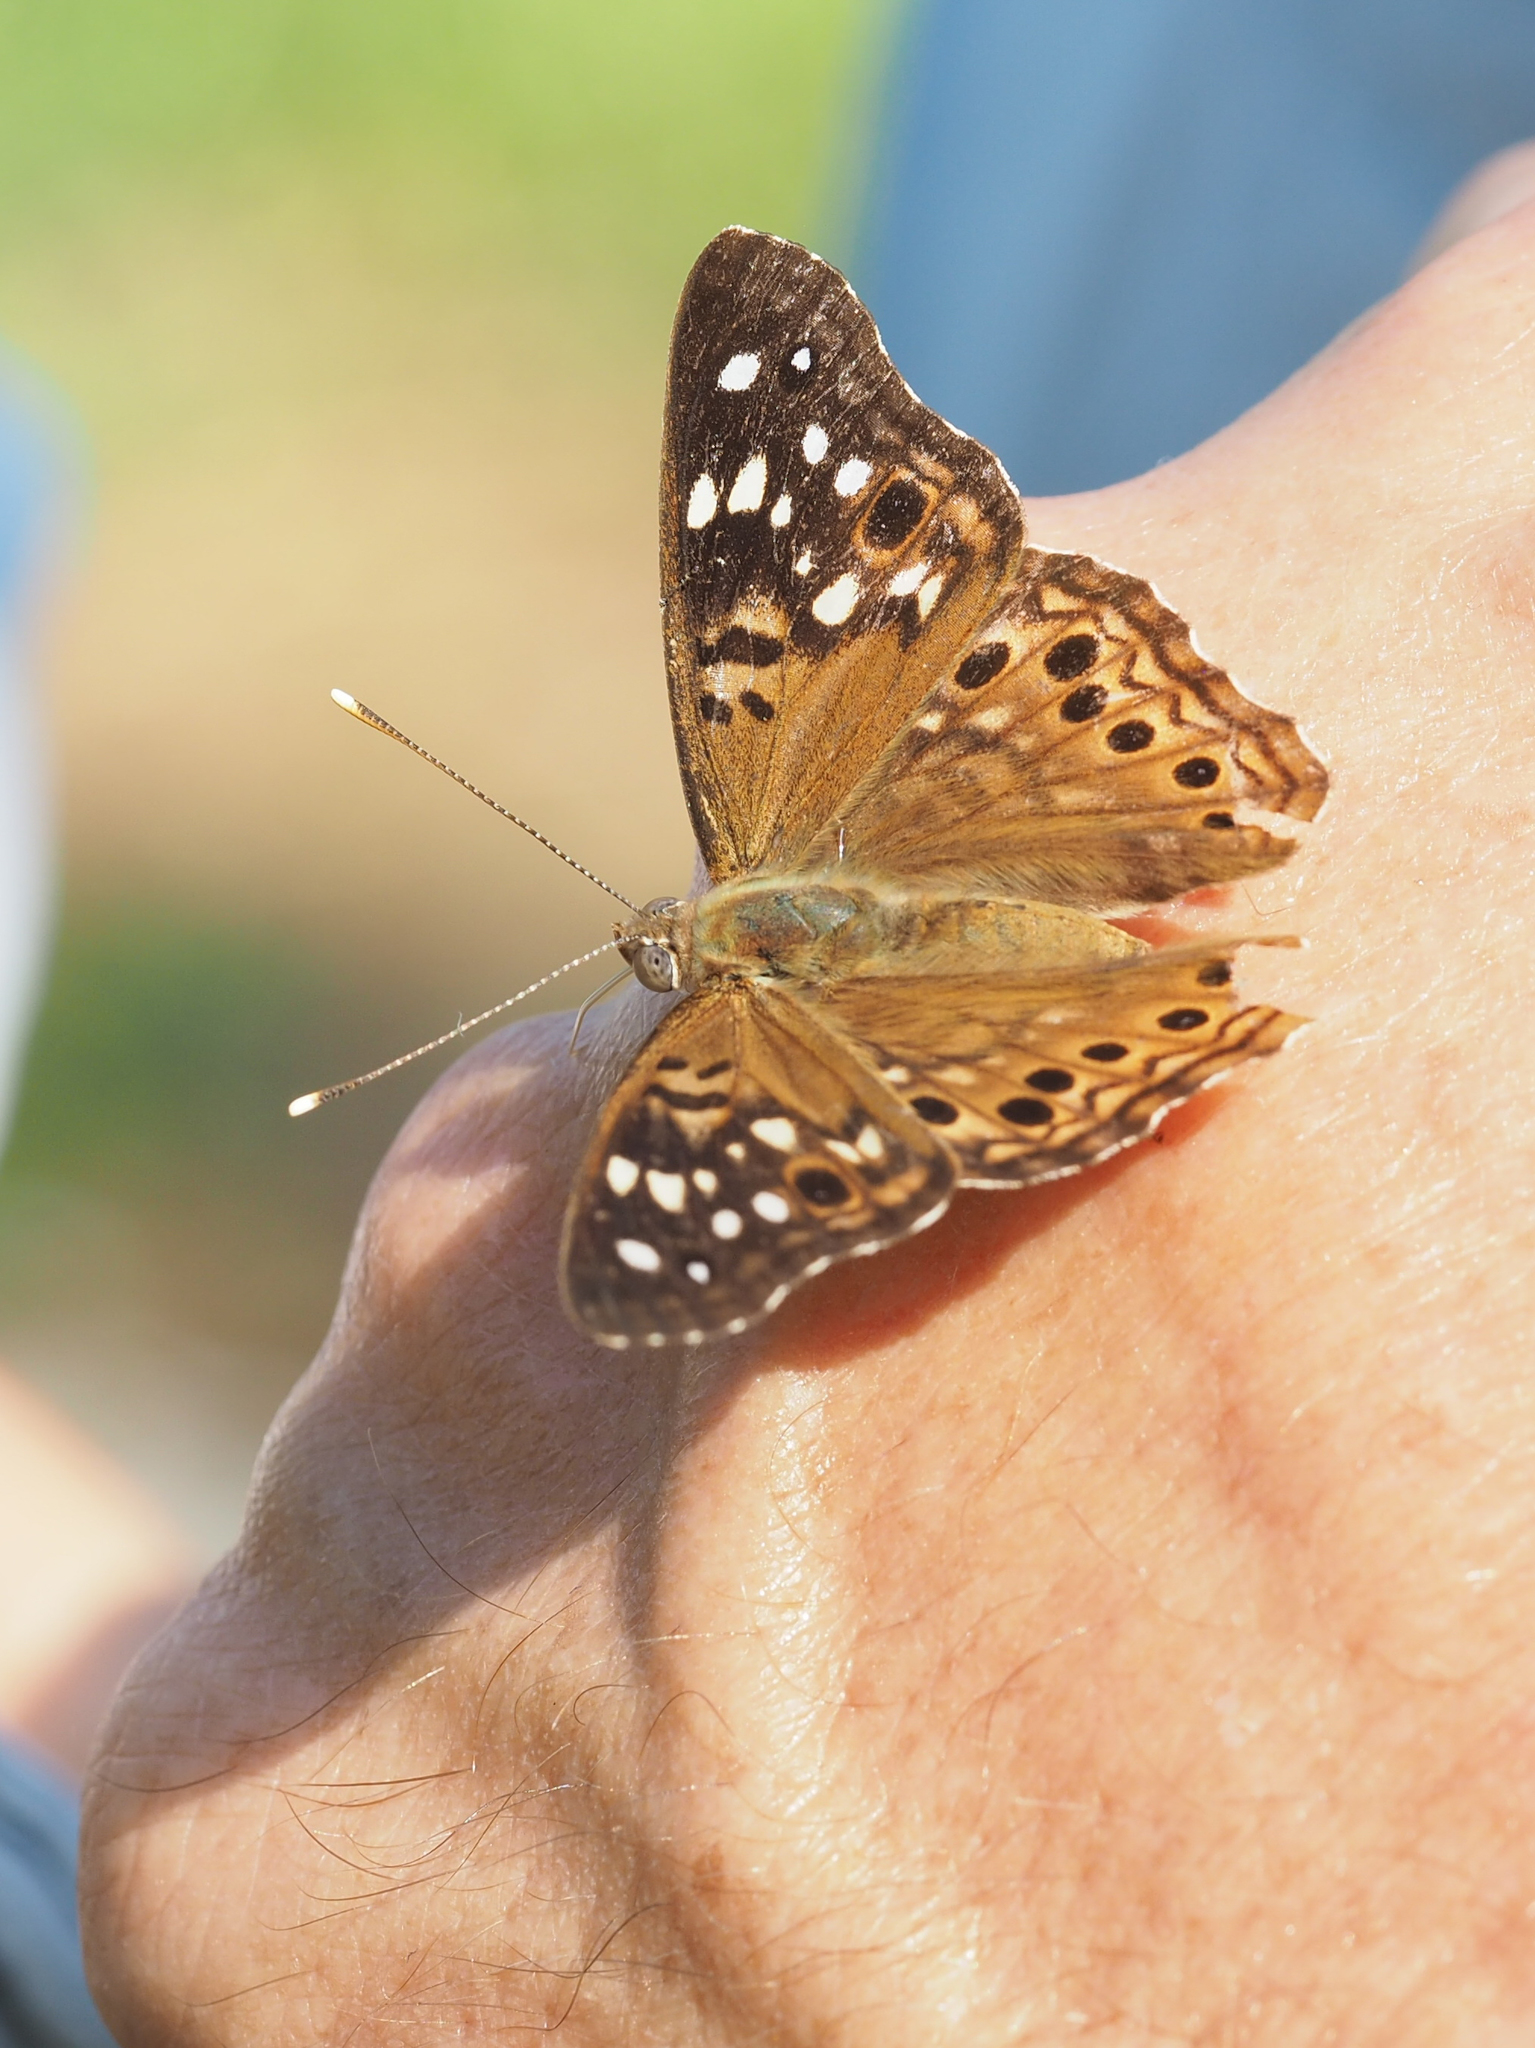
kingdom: Animalia
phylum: Arthropoda
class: Insecta
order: Lepidoptera
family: Nymphalidae
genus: Asterocampa
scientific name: Asterocampa celtis
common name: Hackberry emperor
